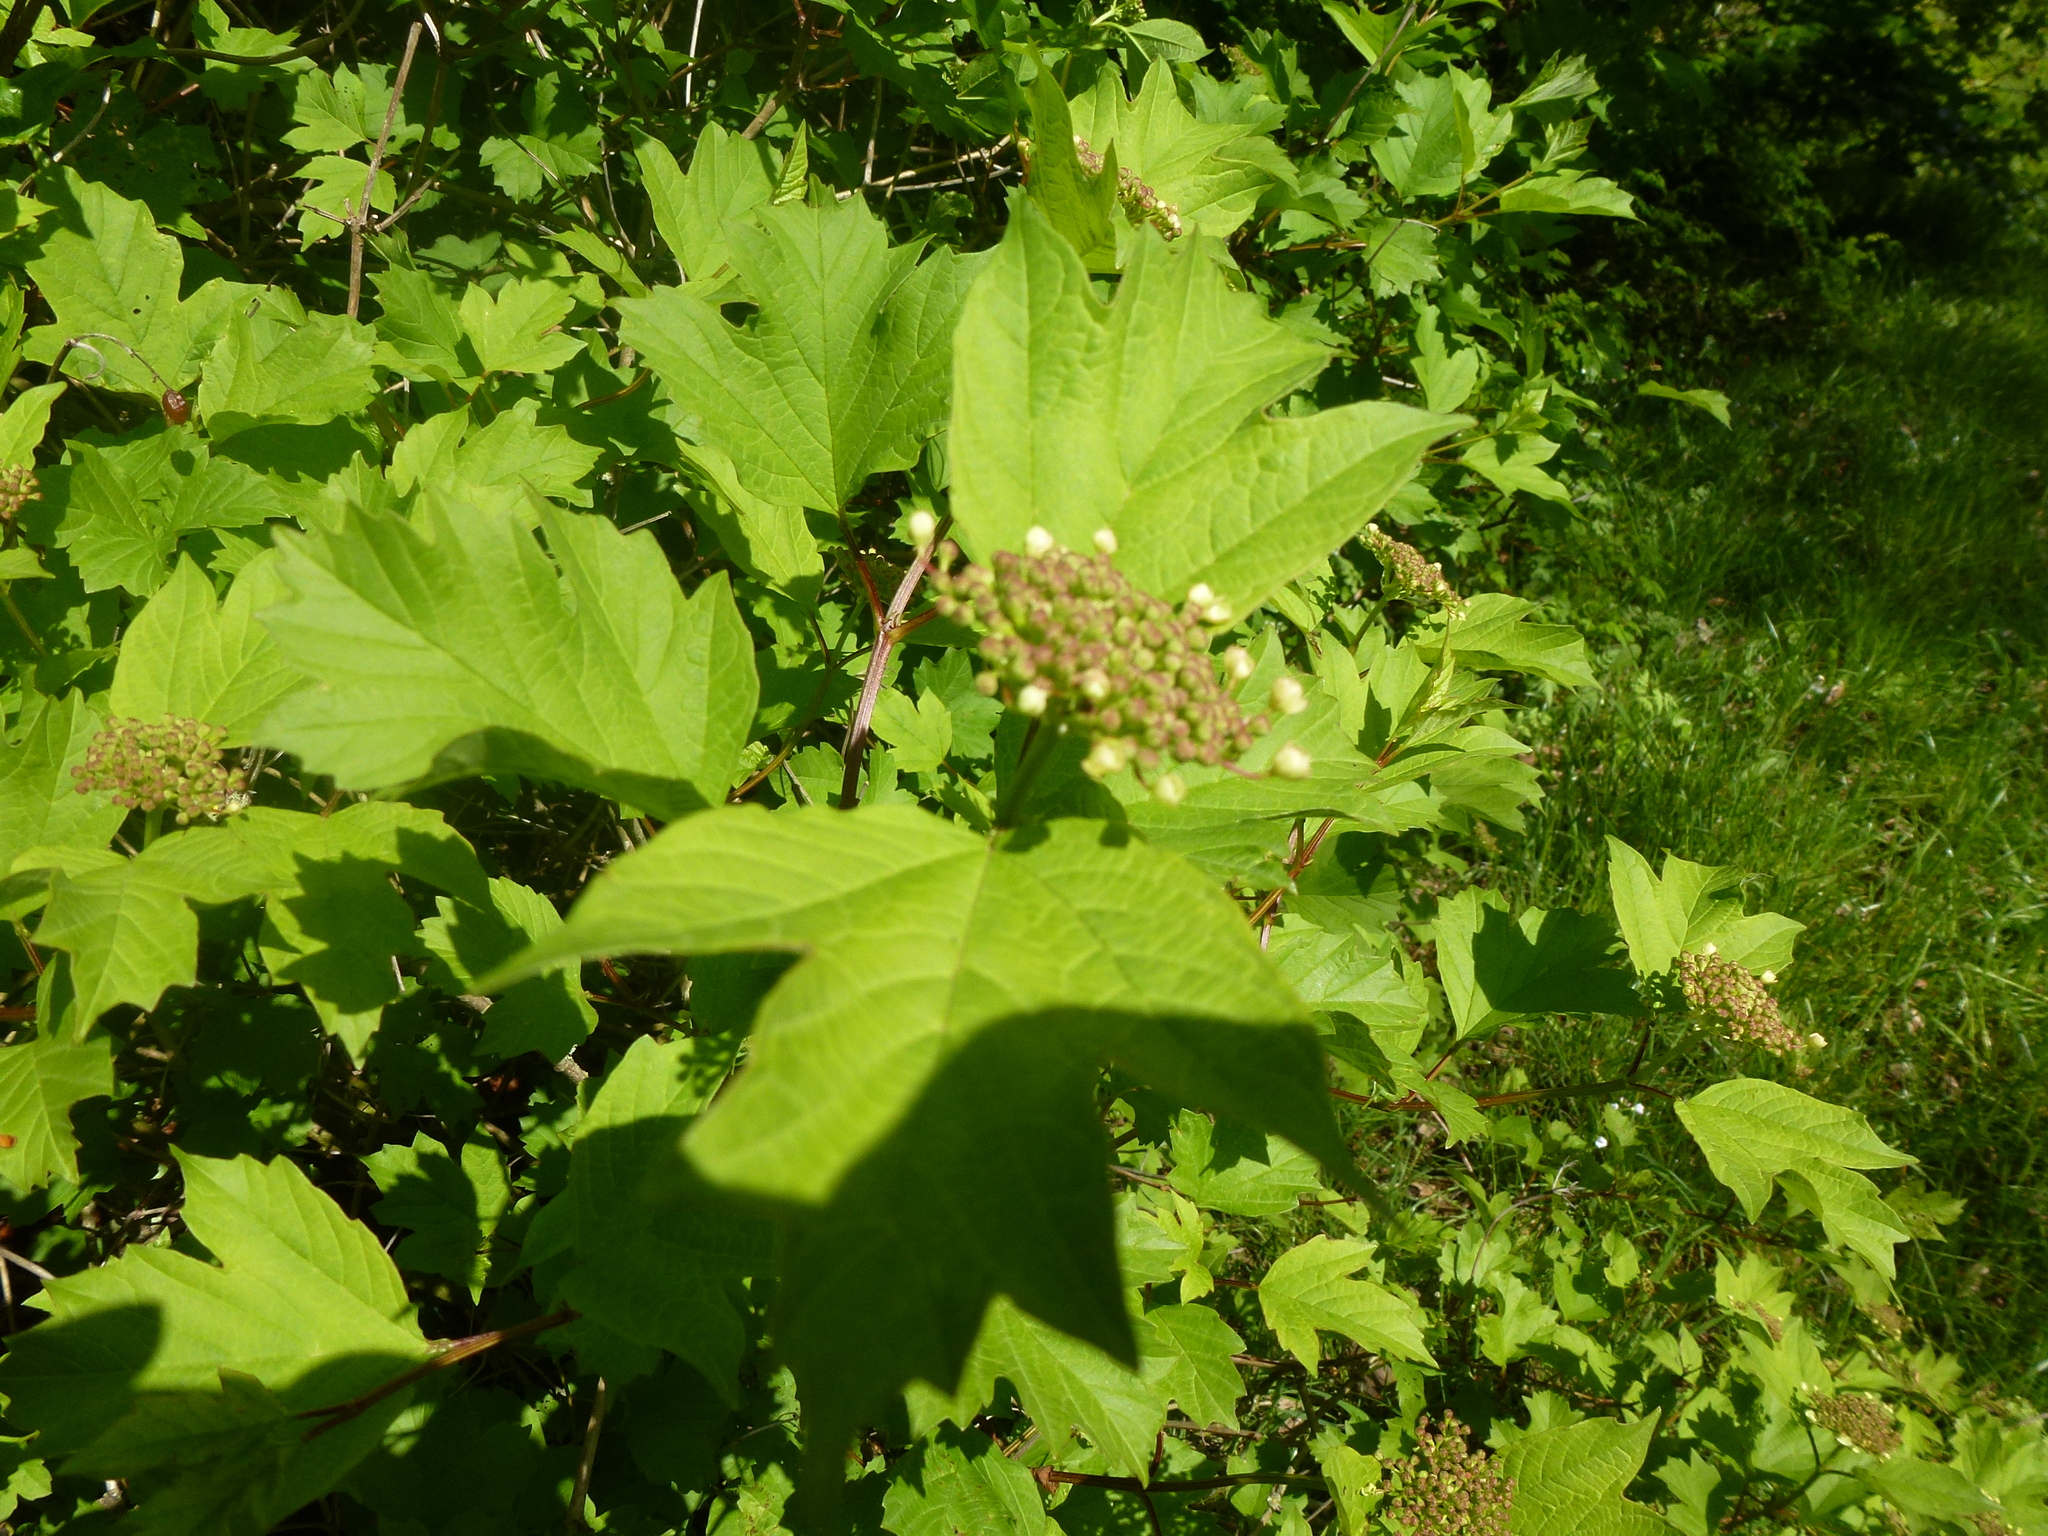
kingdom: Plantae
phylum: Tracheophyta
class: Magnoliopsida
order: Dipsacales
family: Viburnaceae
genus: Viburnum
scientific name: Viburnum opulus
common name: Guelder-rose
